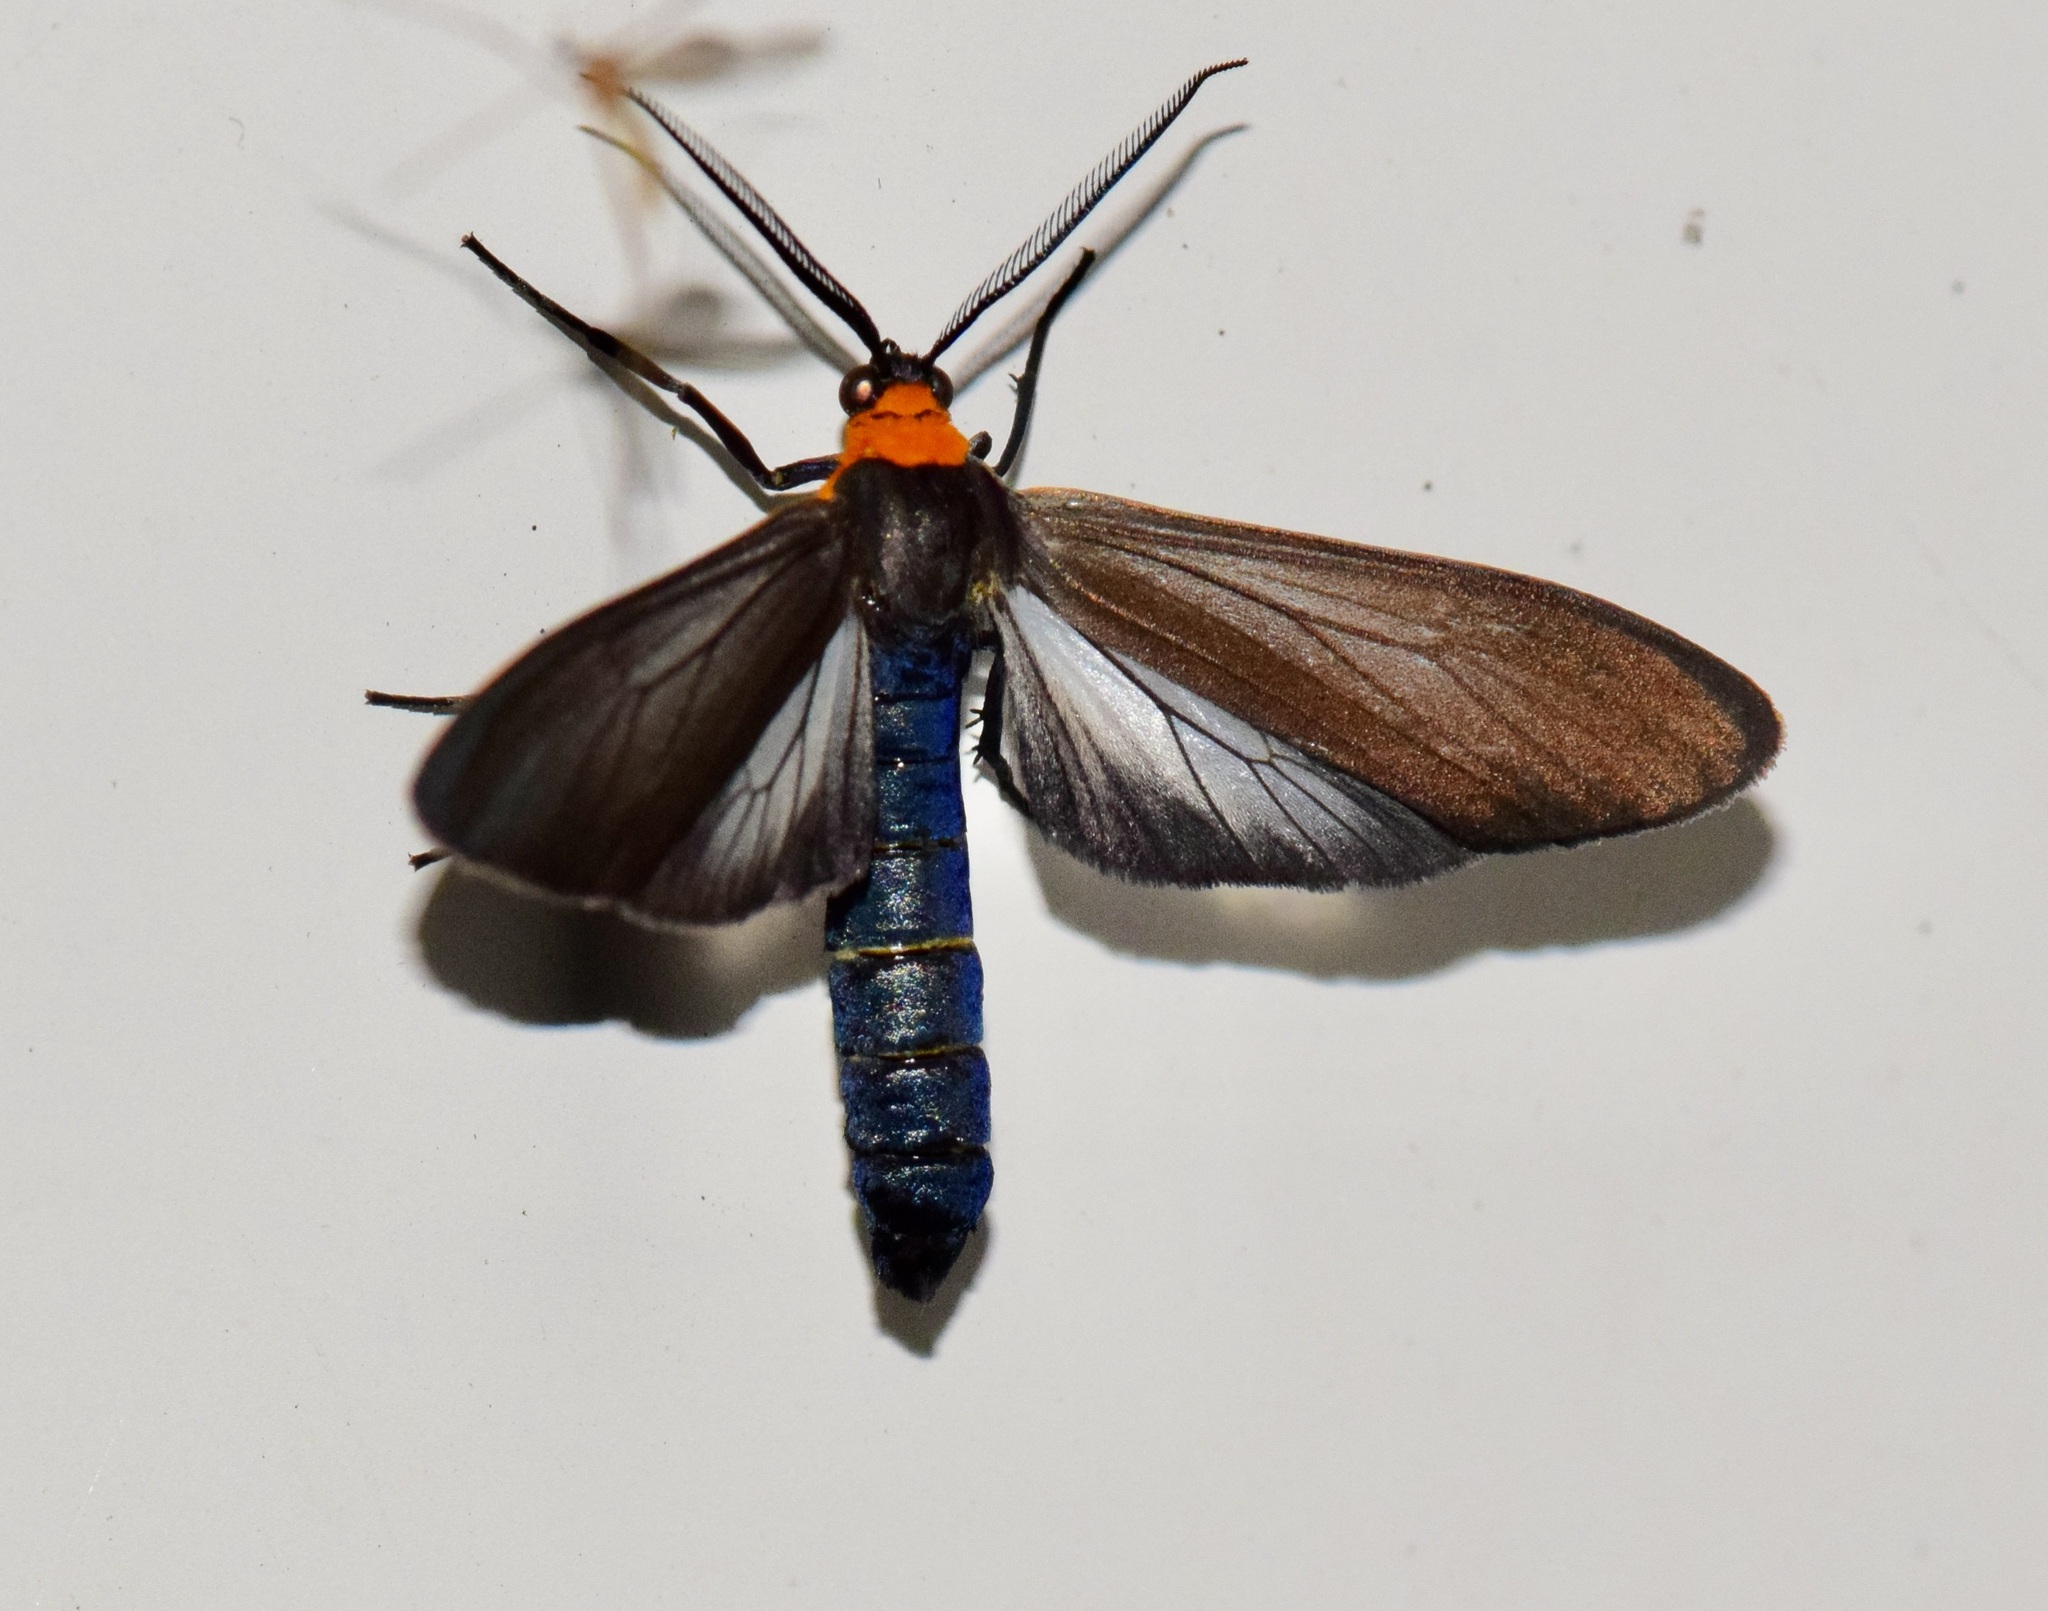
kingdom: Animalia
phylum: Arthropoda
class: Insecta
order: Lepidoptera
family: Erebidae
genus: Cisseps
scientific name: Cisseps fulvicollis
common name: Yellow-collared scape moth
